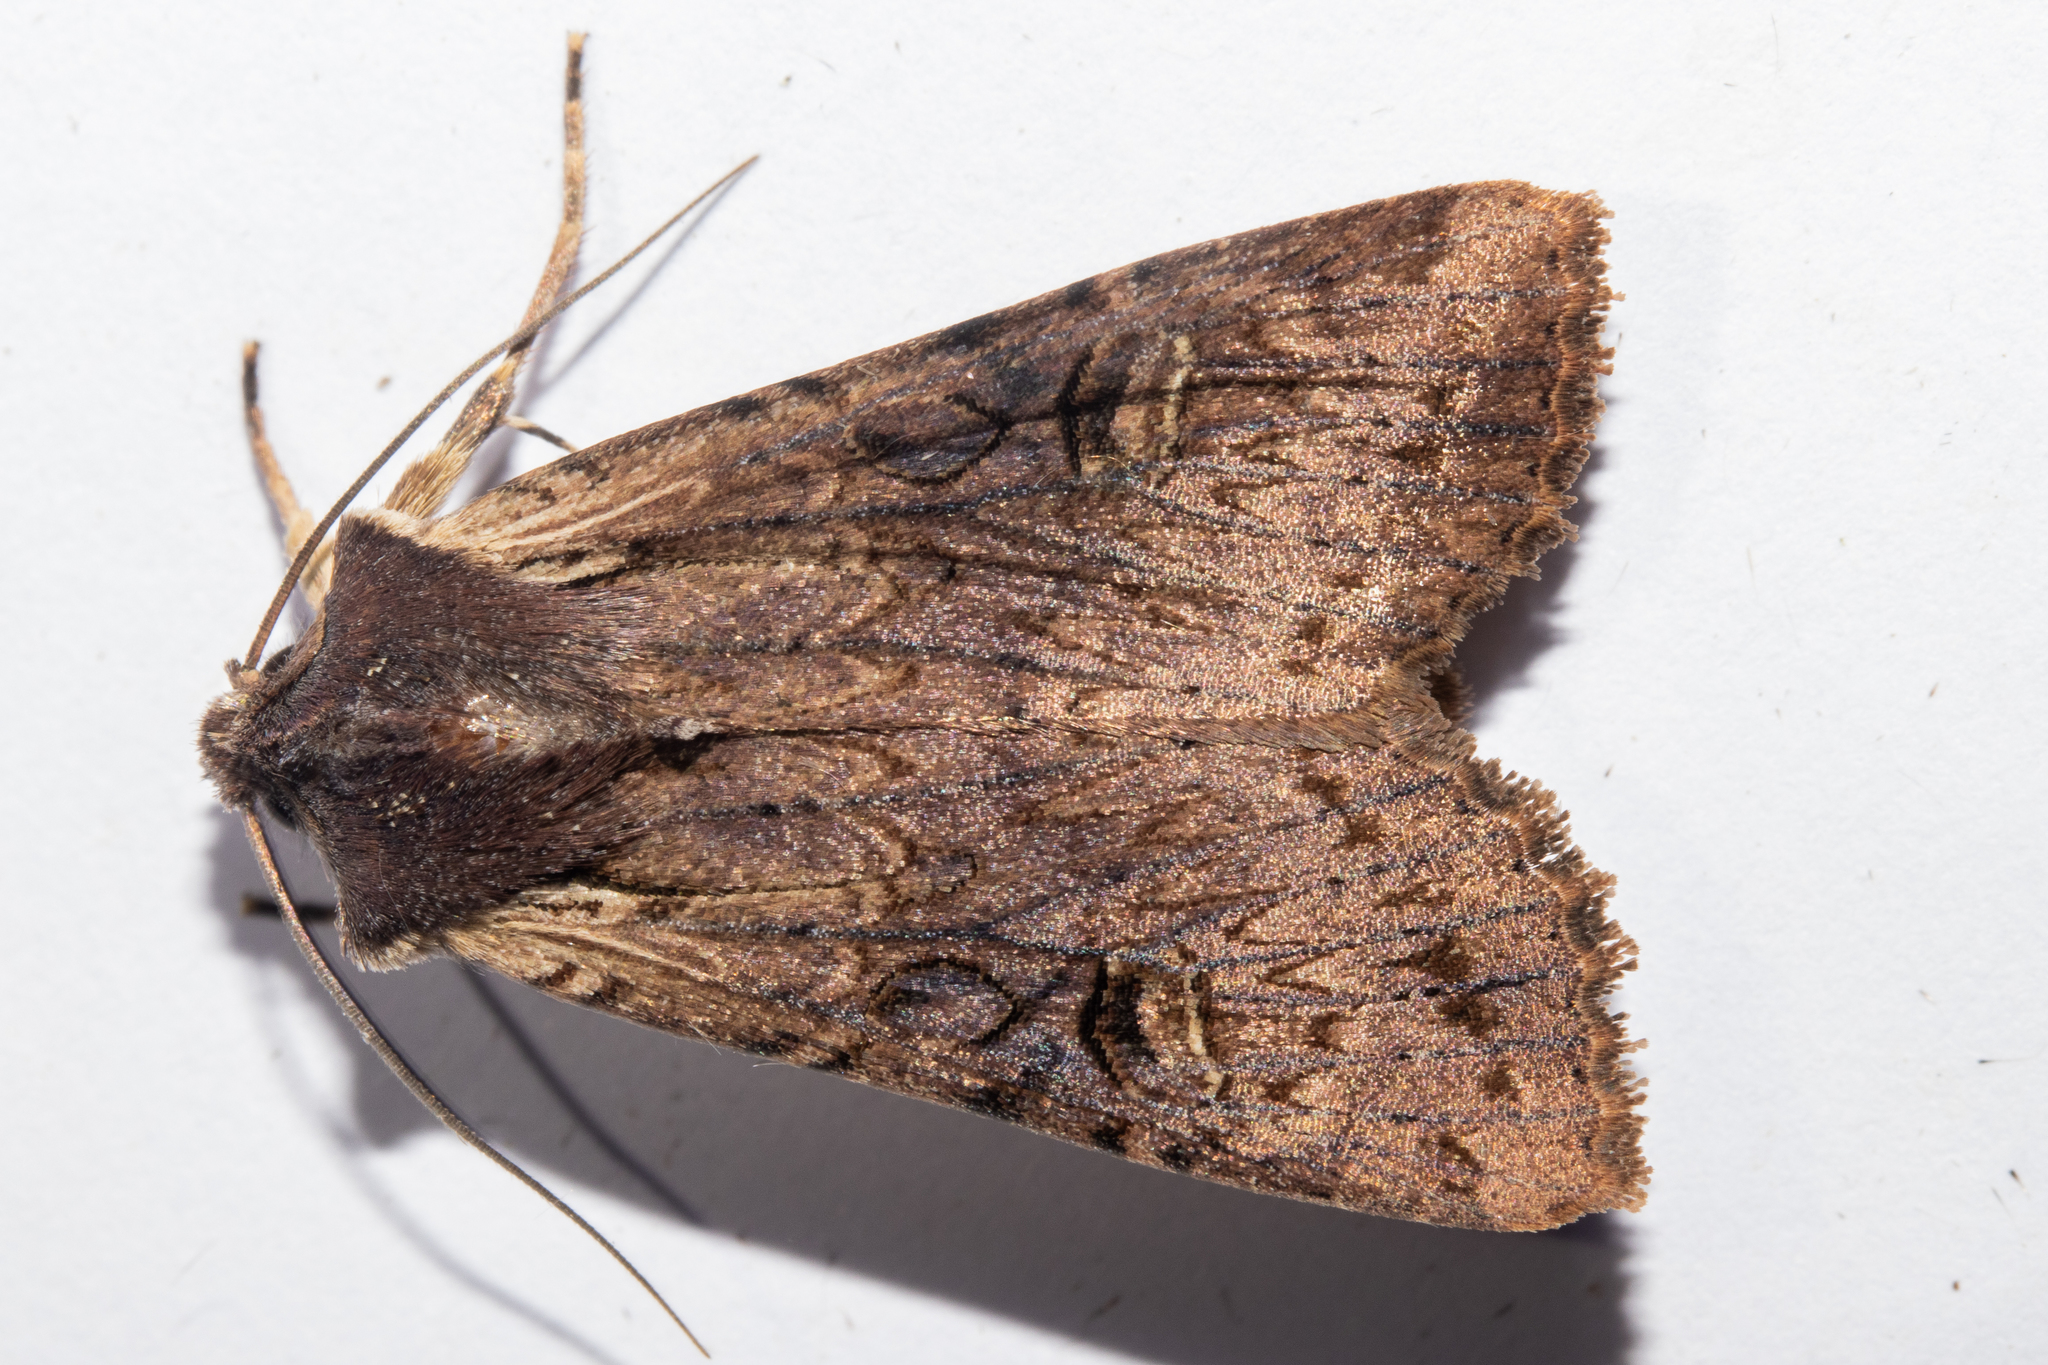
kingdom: Animalia
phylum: Arthropoda
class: Insecta
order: Lepidoptera
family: Noctuidae
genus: Ichneutica
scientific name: Ichneutica omoplaca
